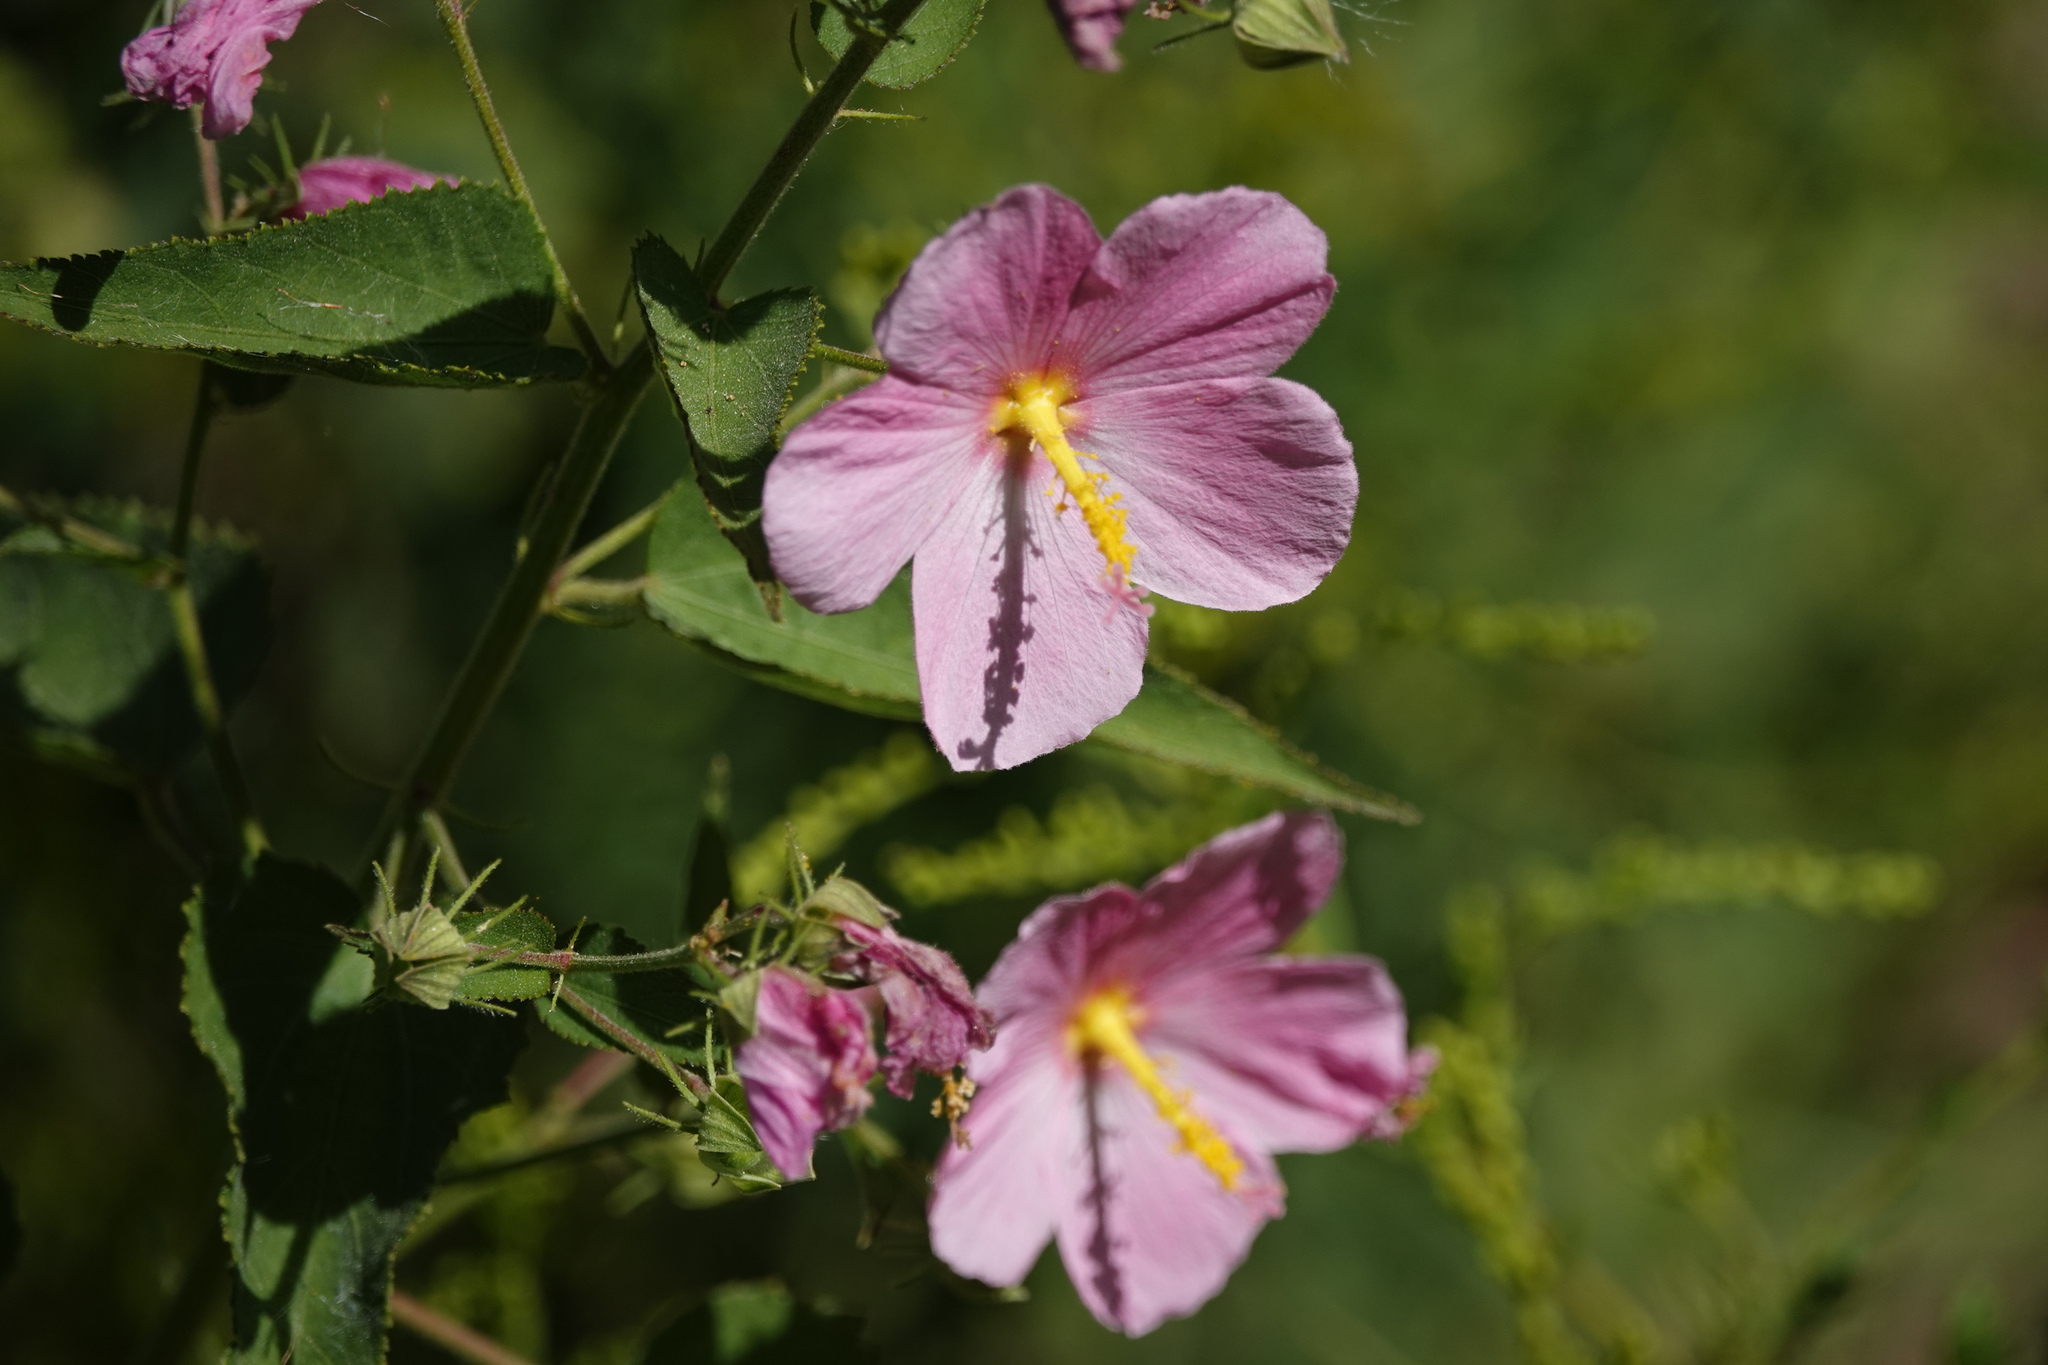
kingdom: Plantae
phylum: Tracheophyta
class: Magnoliopsida
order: Malvales
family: Malvaceae
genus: Kosteletzkya
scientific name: Kosteletzkya pentacarpos
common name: Virginia saltmarsh mallow
